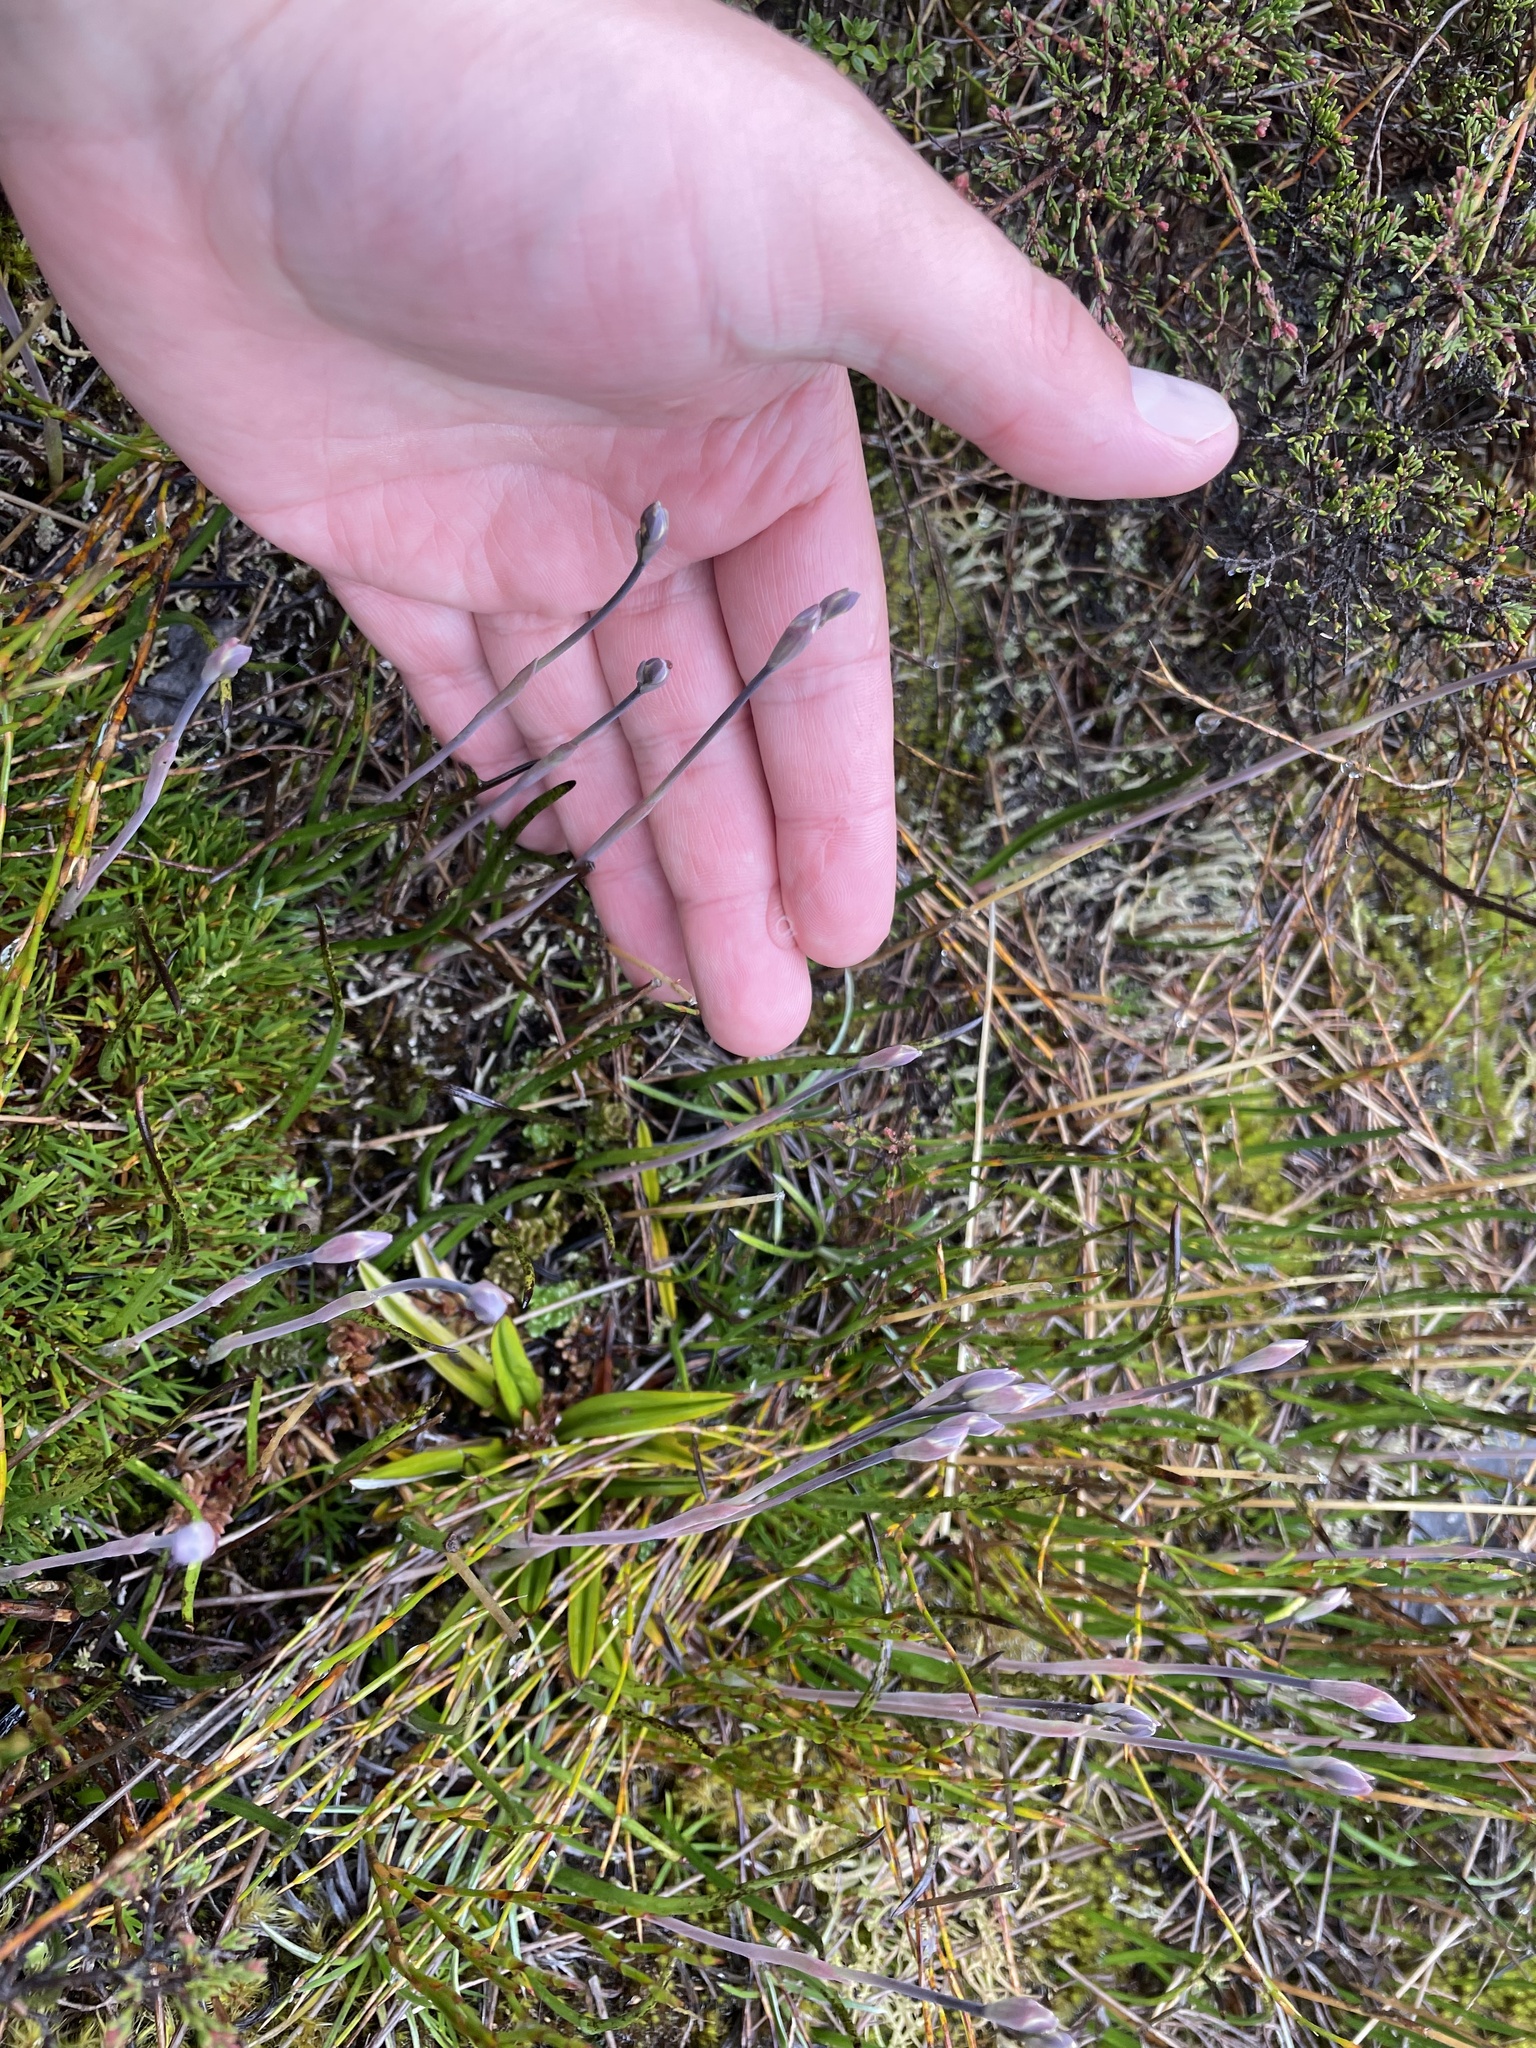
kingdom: Plantae
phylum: Tracheophyta
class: Liliopsida
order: Asparagales
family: Orchidaceae
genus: Thelymitra
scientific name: Thelymitra cyanea
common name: Blue sun-orchid
